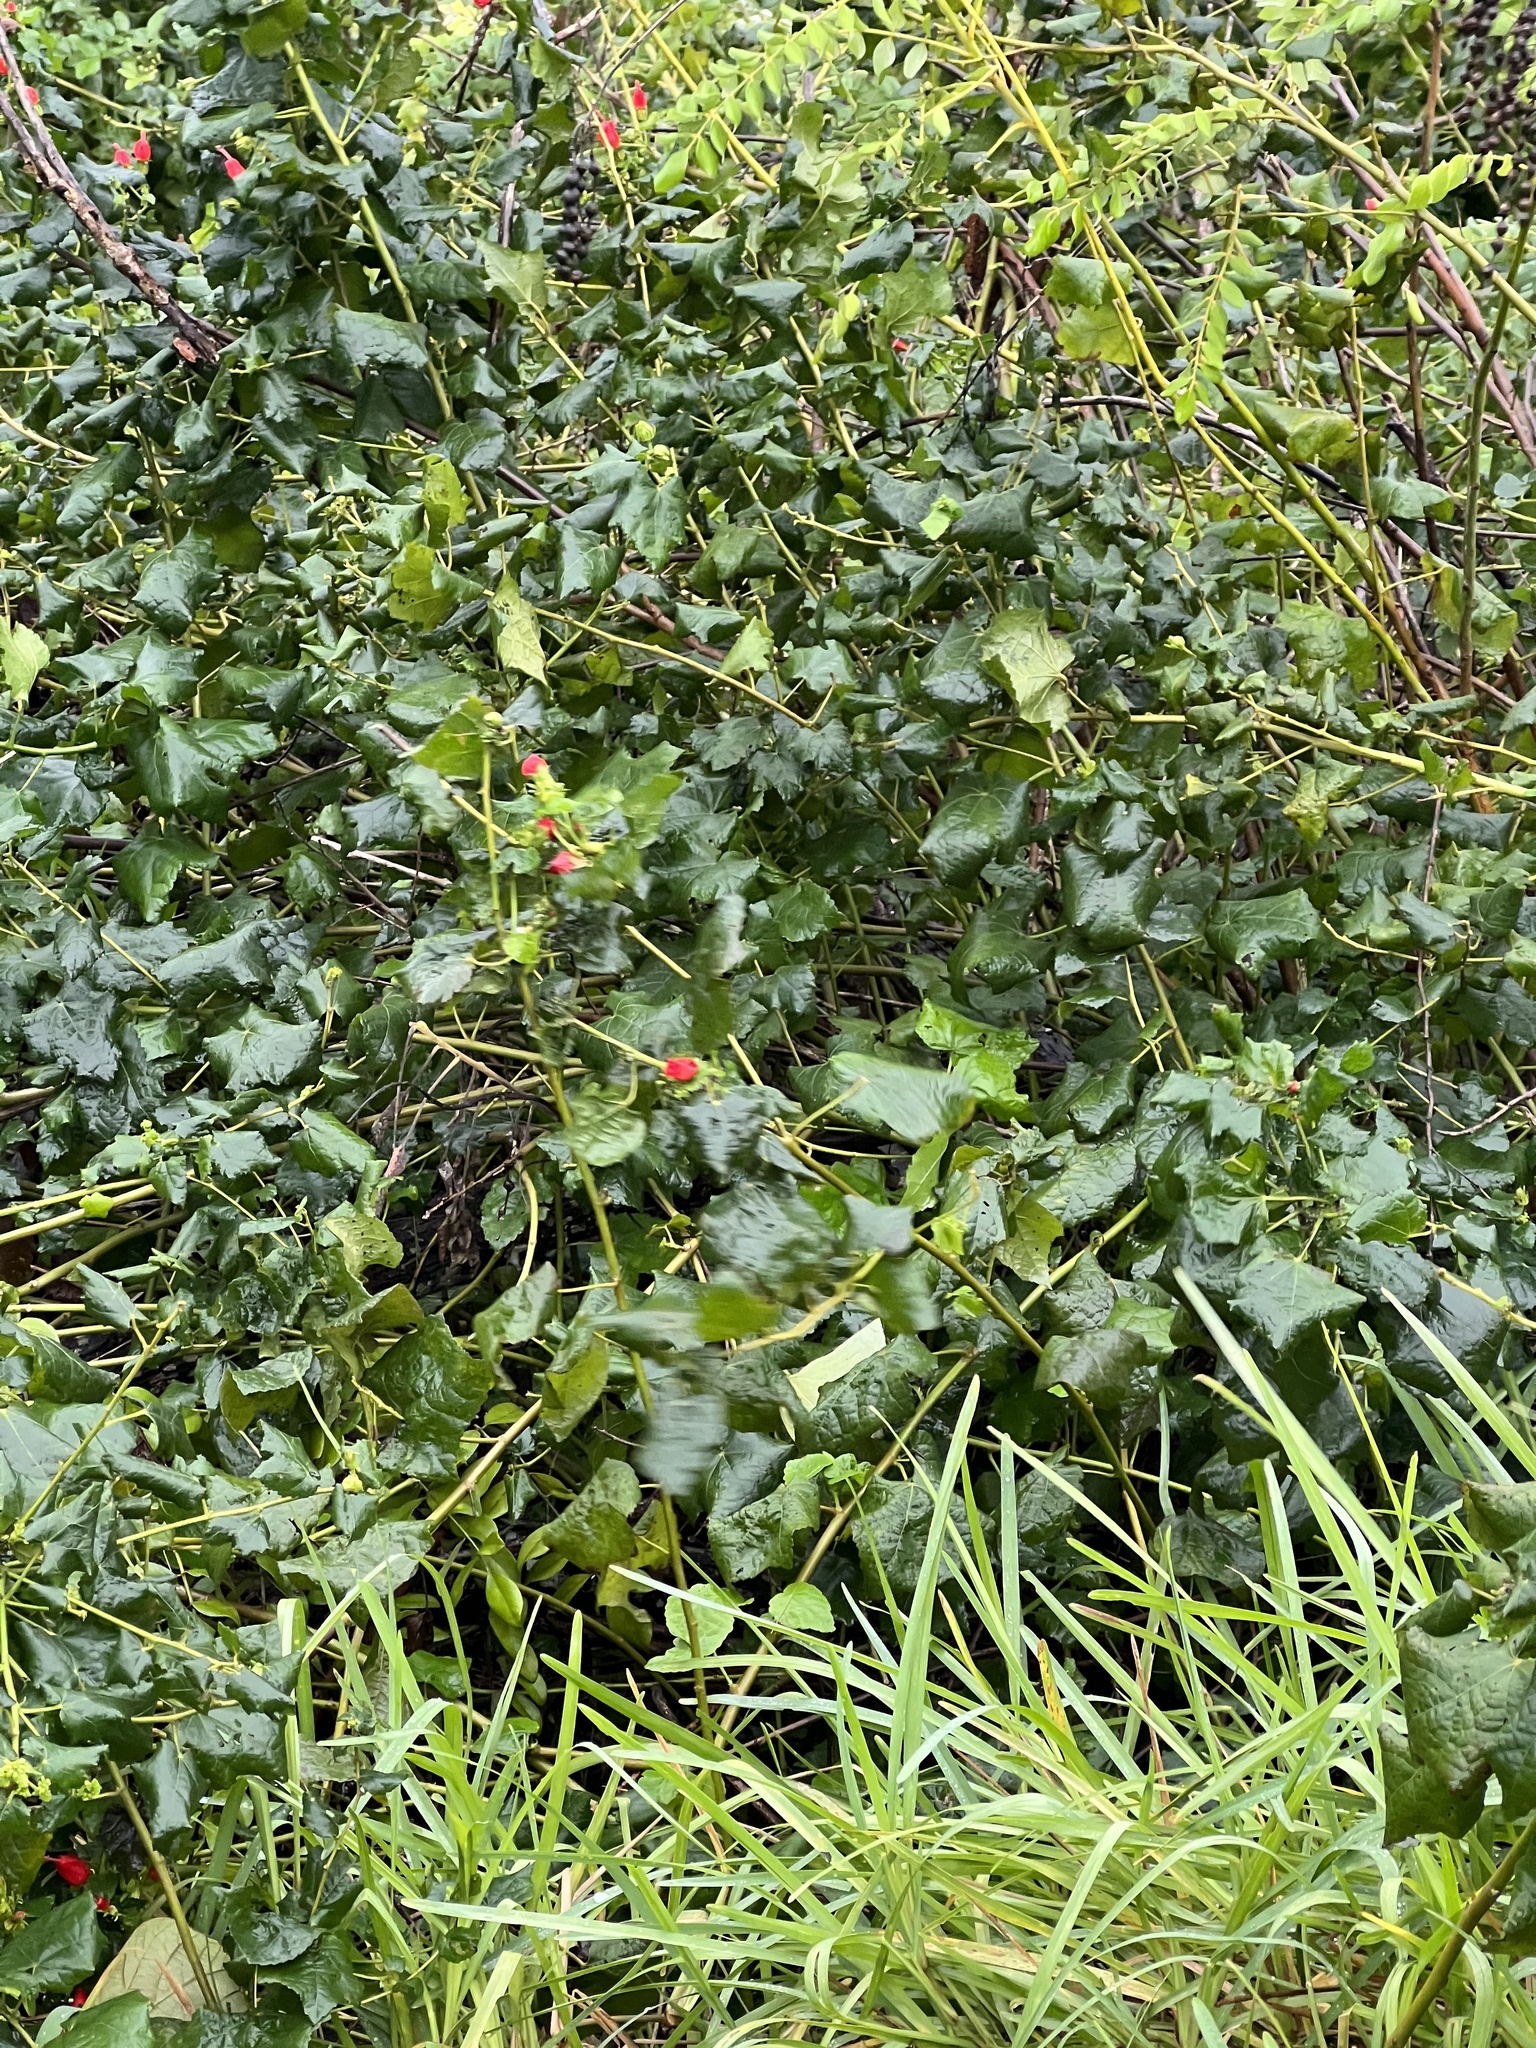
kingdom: Plantae
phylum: Tracheophyta
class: Magnoliopsida
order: Malvales
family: Malvaceae
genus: Malvaviscus
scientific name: Malvaviscus arboreus
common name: Wax mallow
